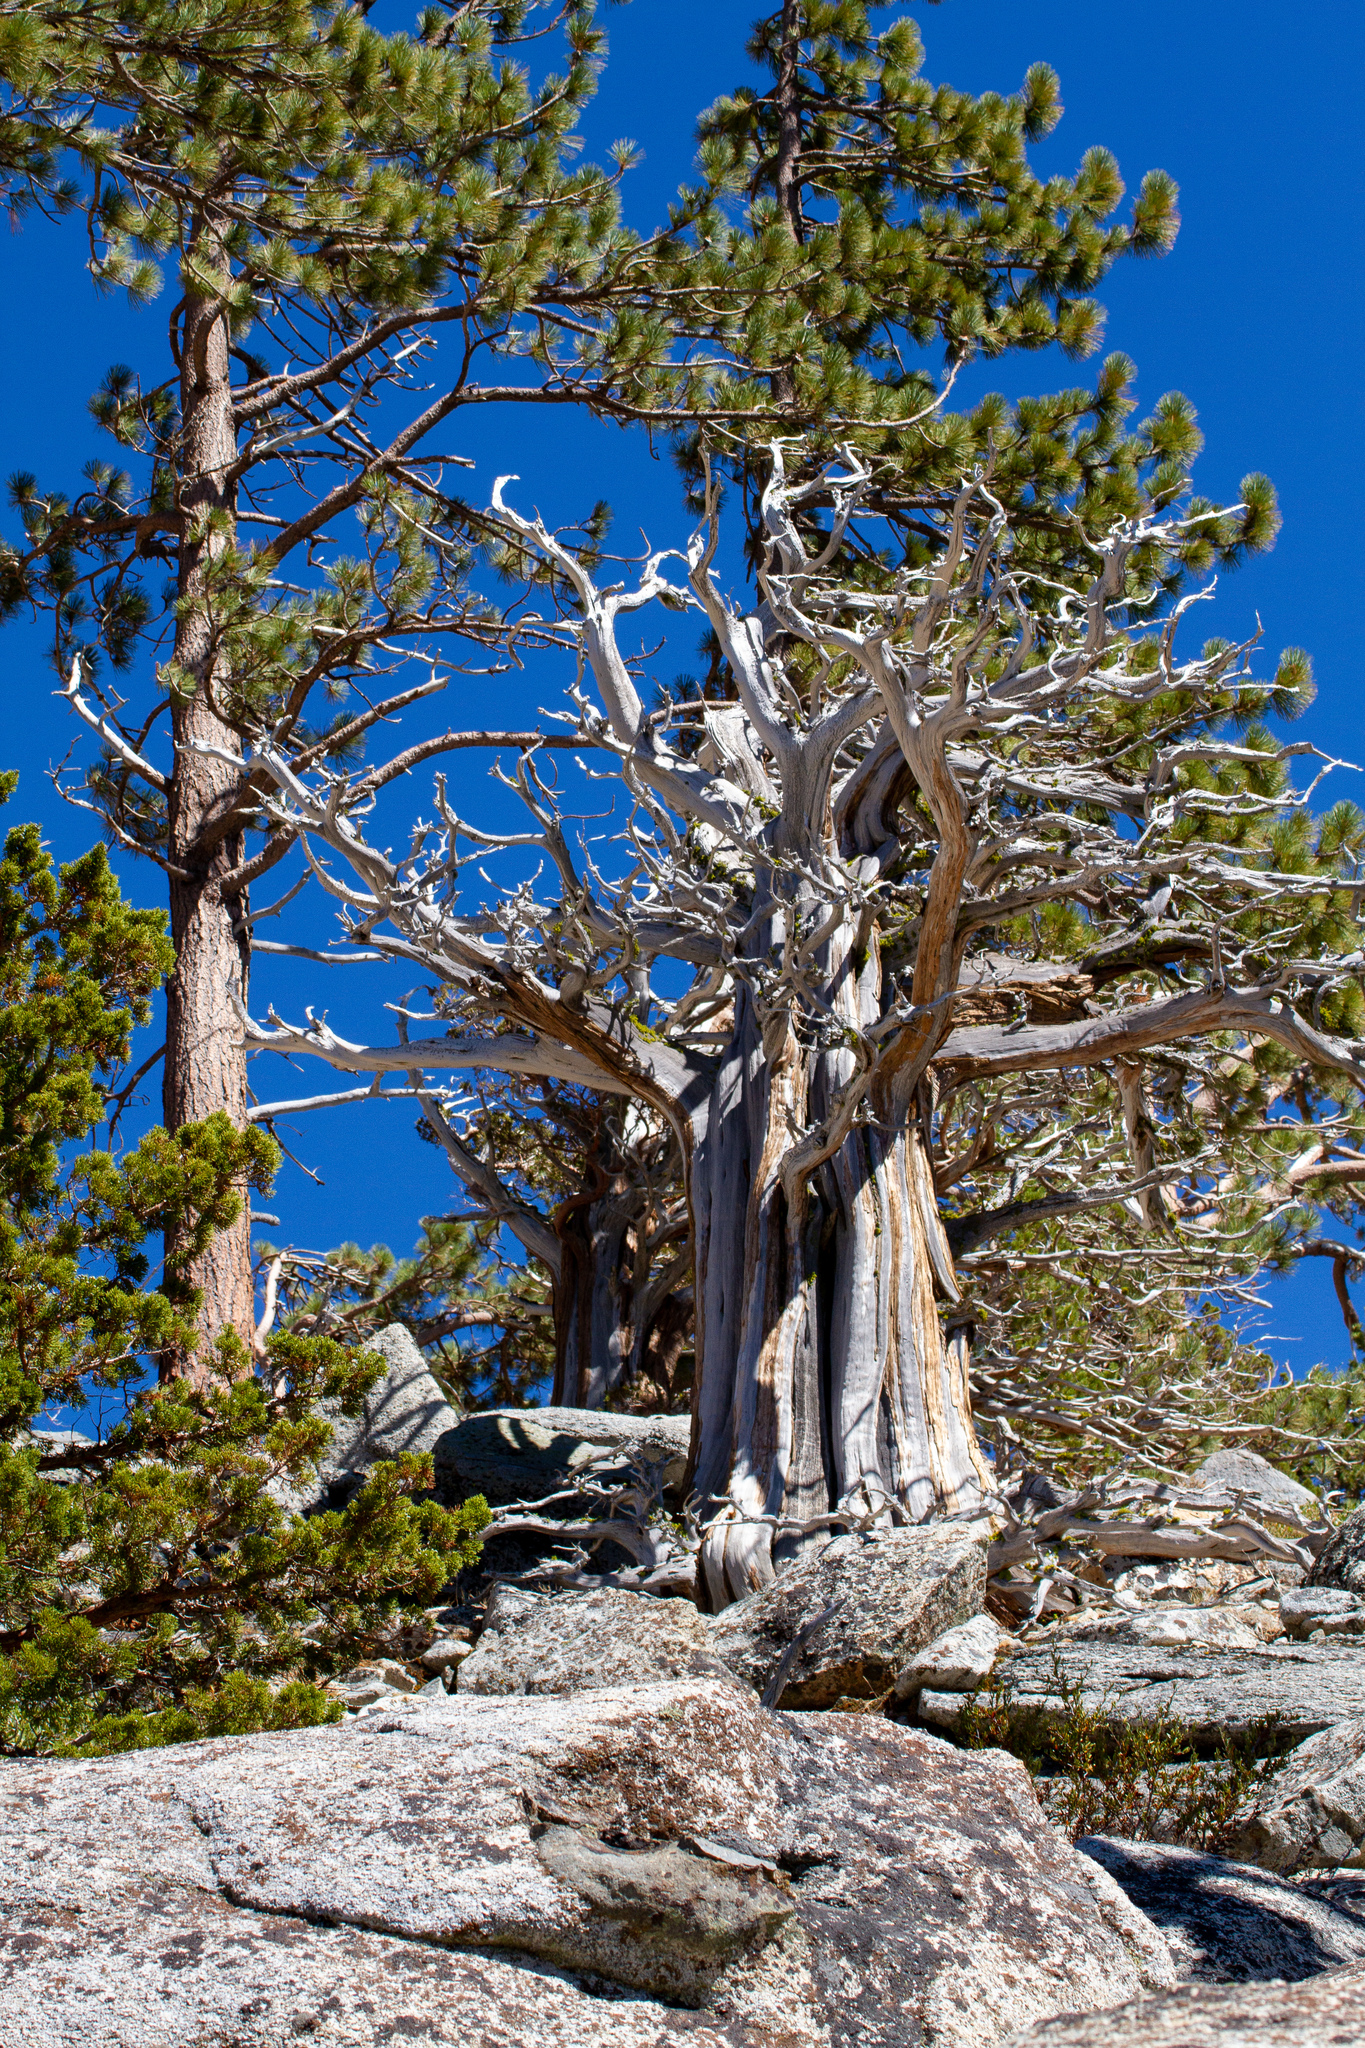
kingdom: Plantae
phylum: Tracheophyta
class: Pinopsida
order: Pinales
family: Cupressaceae
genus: Juniperus
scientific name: Juniperus occidentalis
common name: Western juniper
